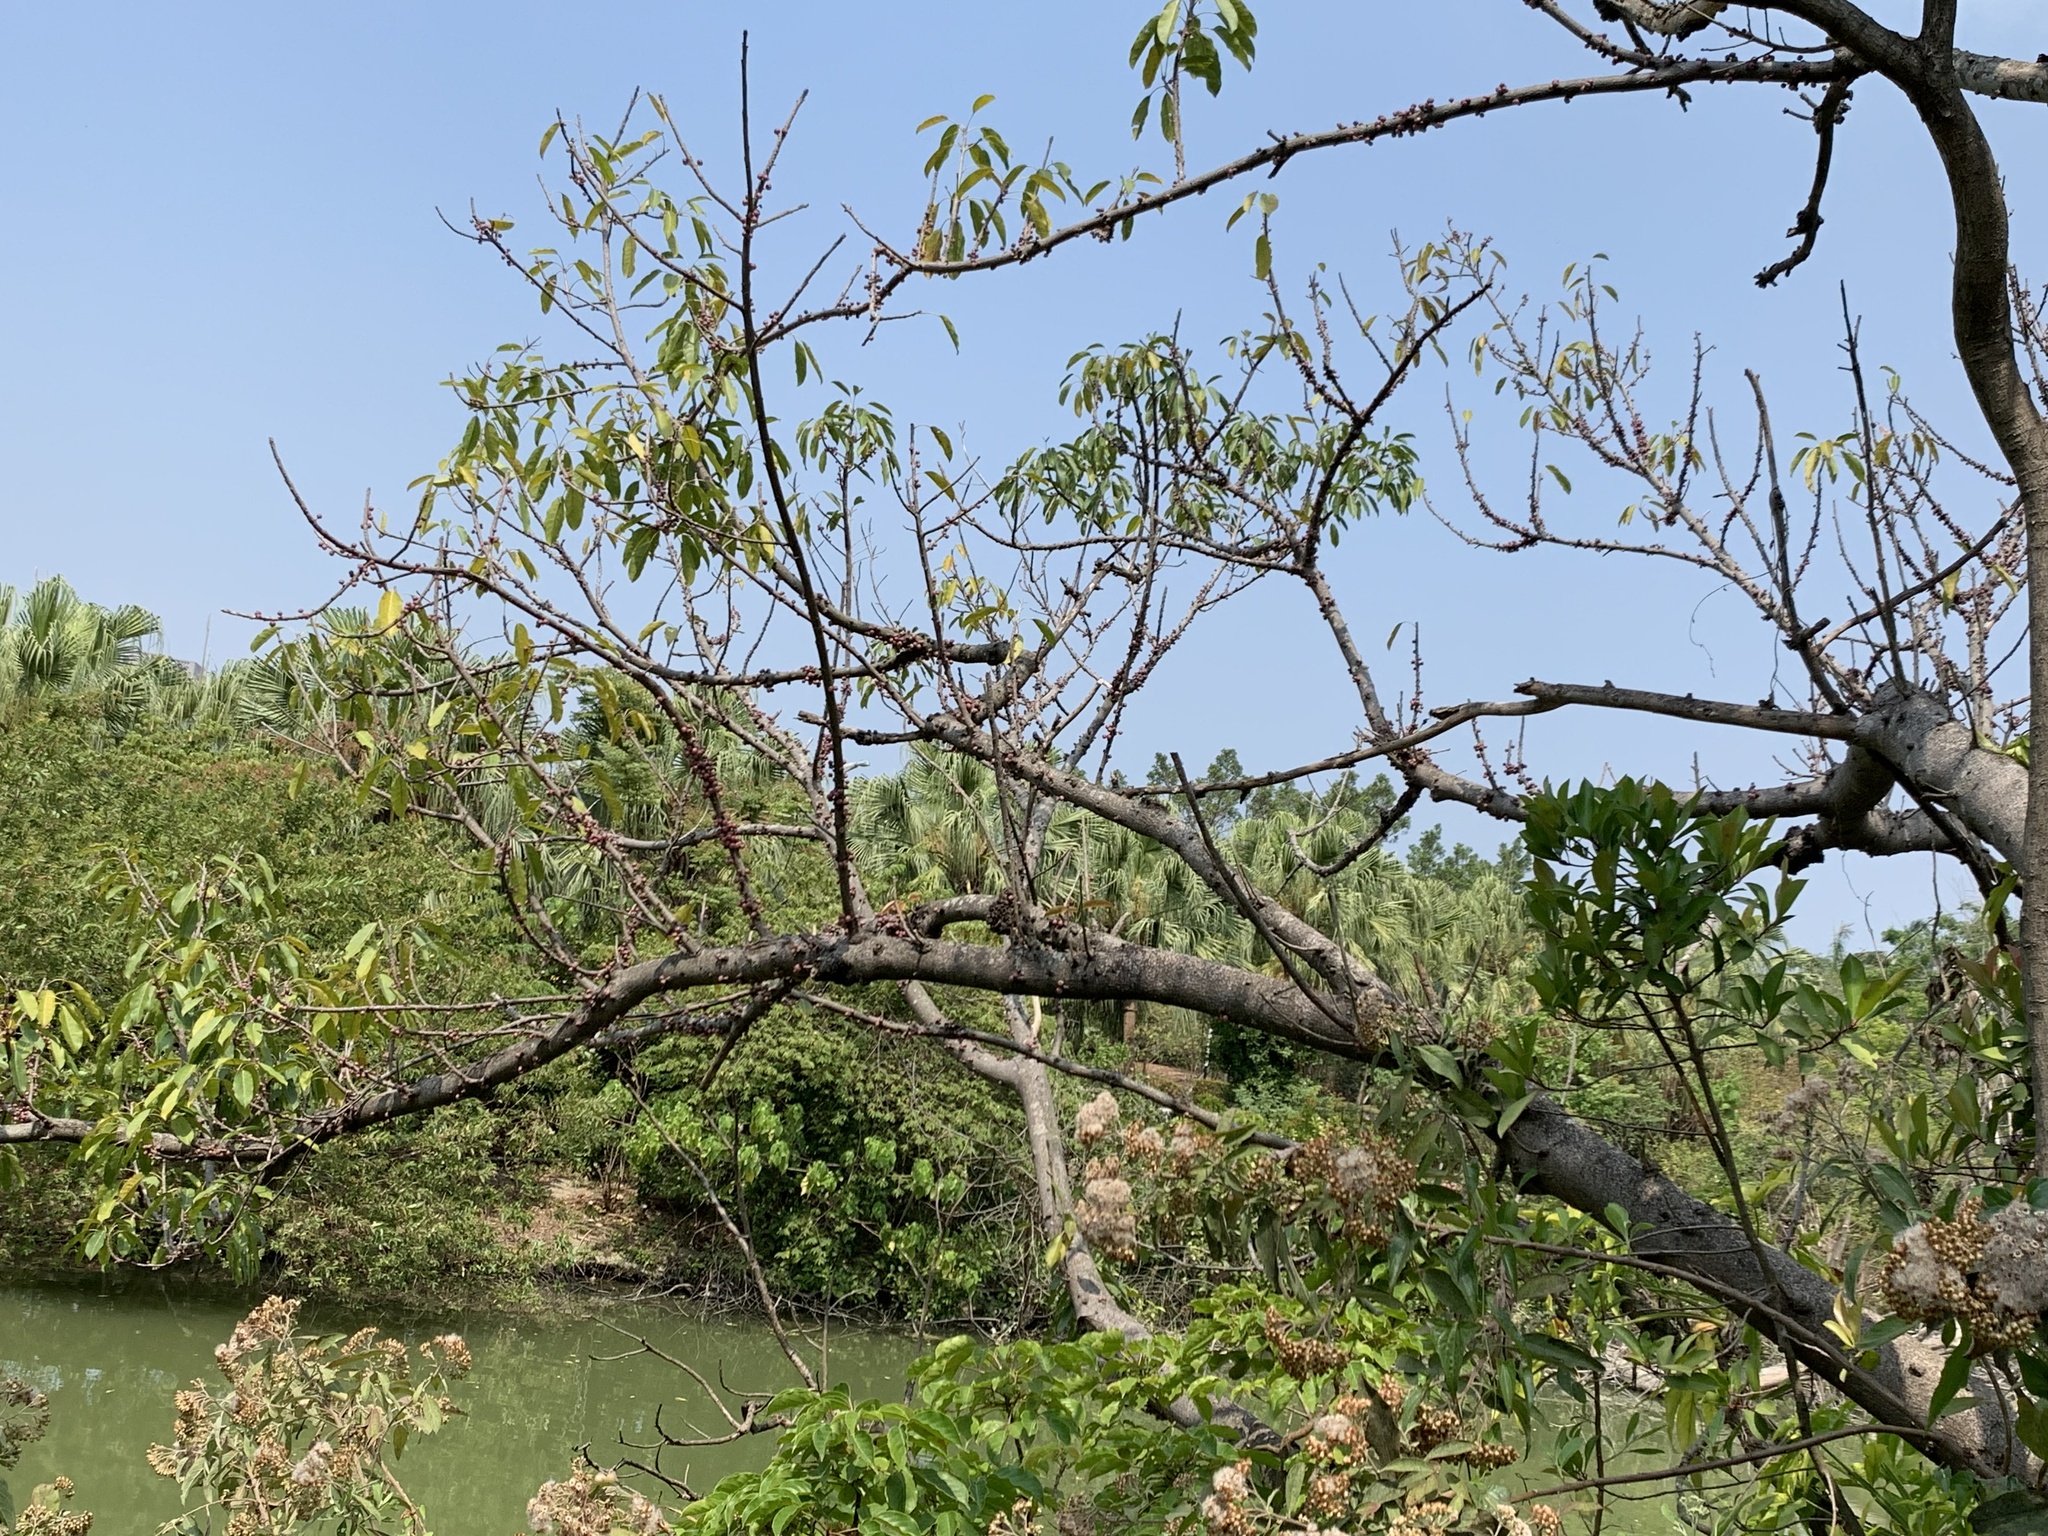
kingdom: Plantae
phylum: Tracheophyta
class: Magnoliopsida
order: Rosales
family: Moraceae
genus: Ficus
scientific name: Ficus subpisocarpa
